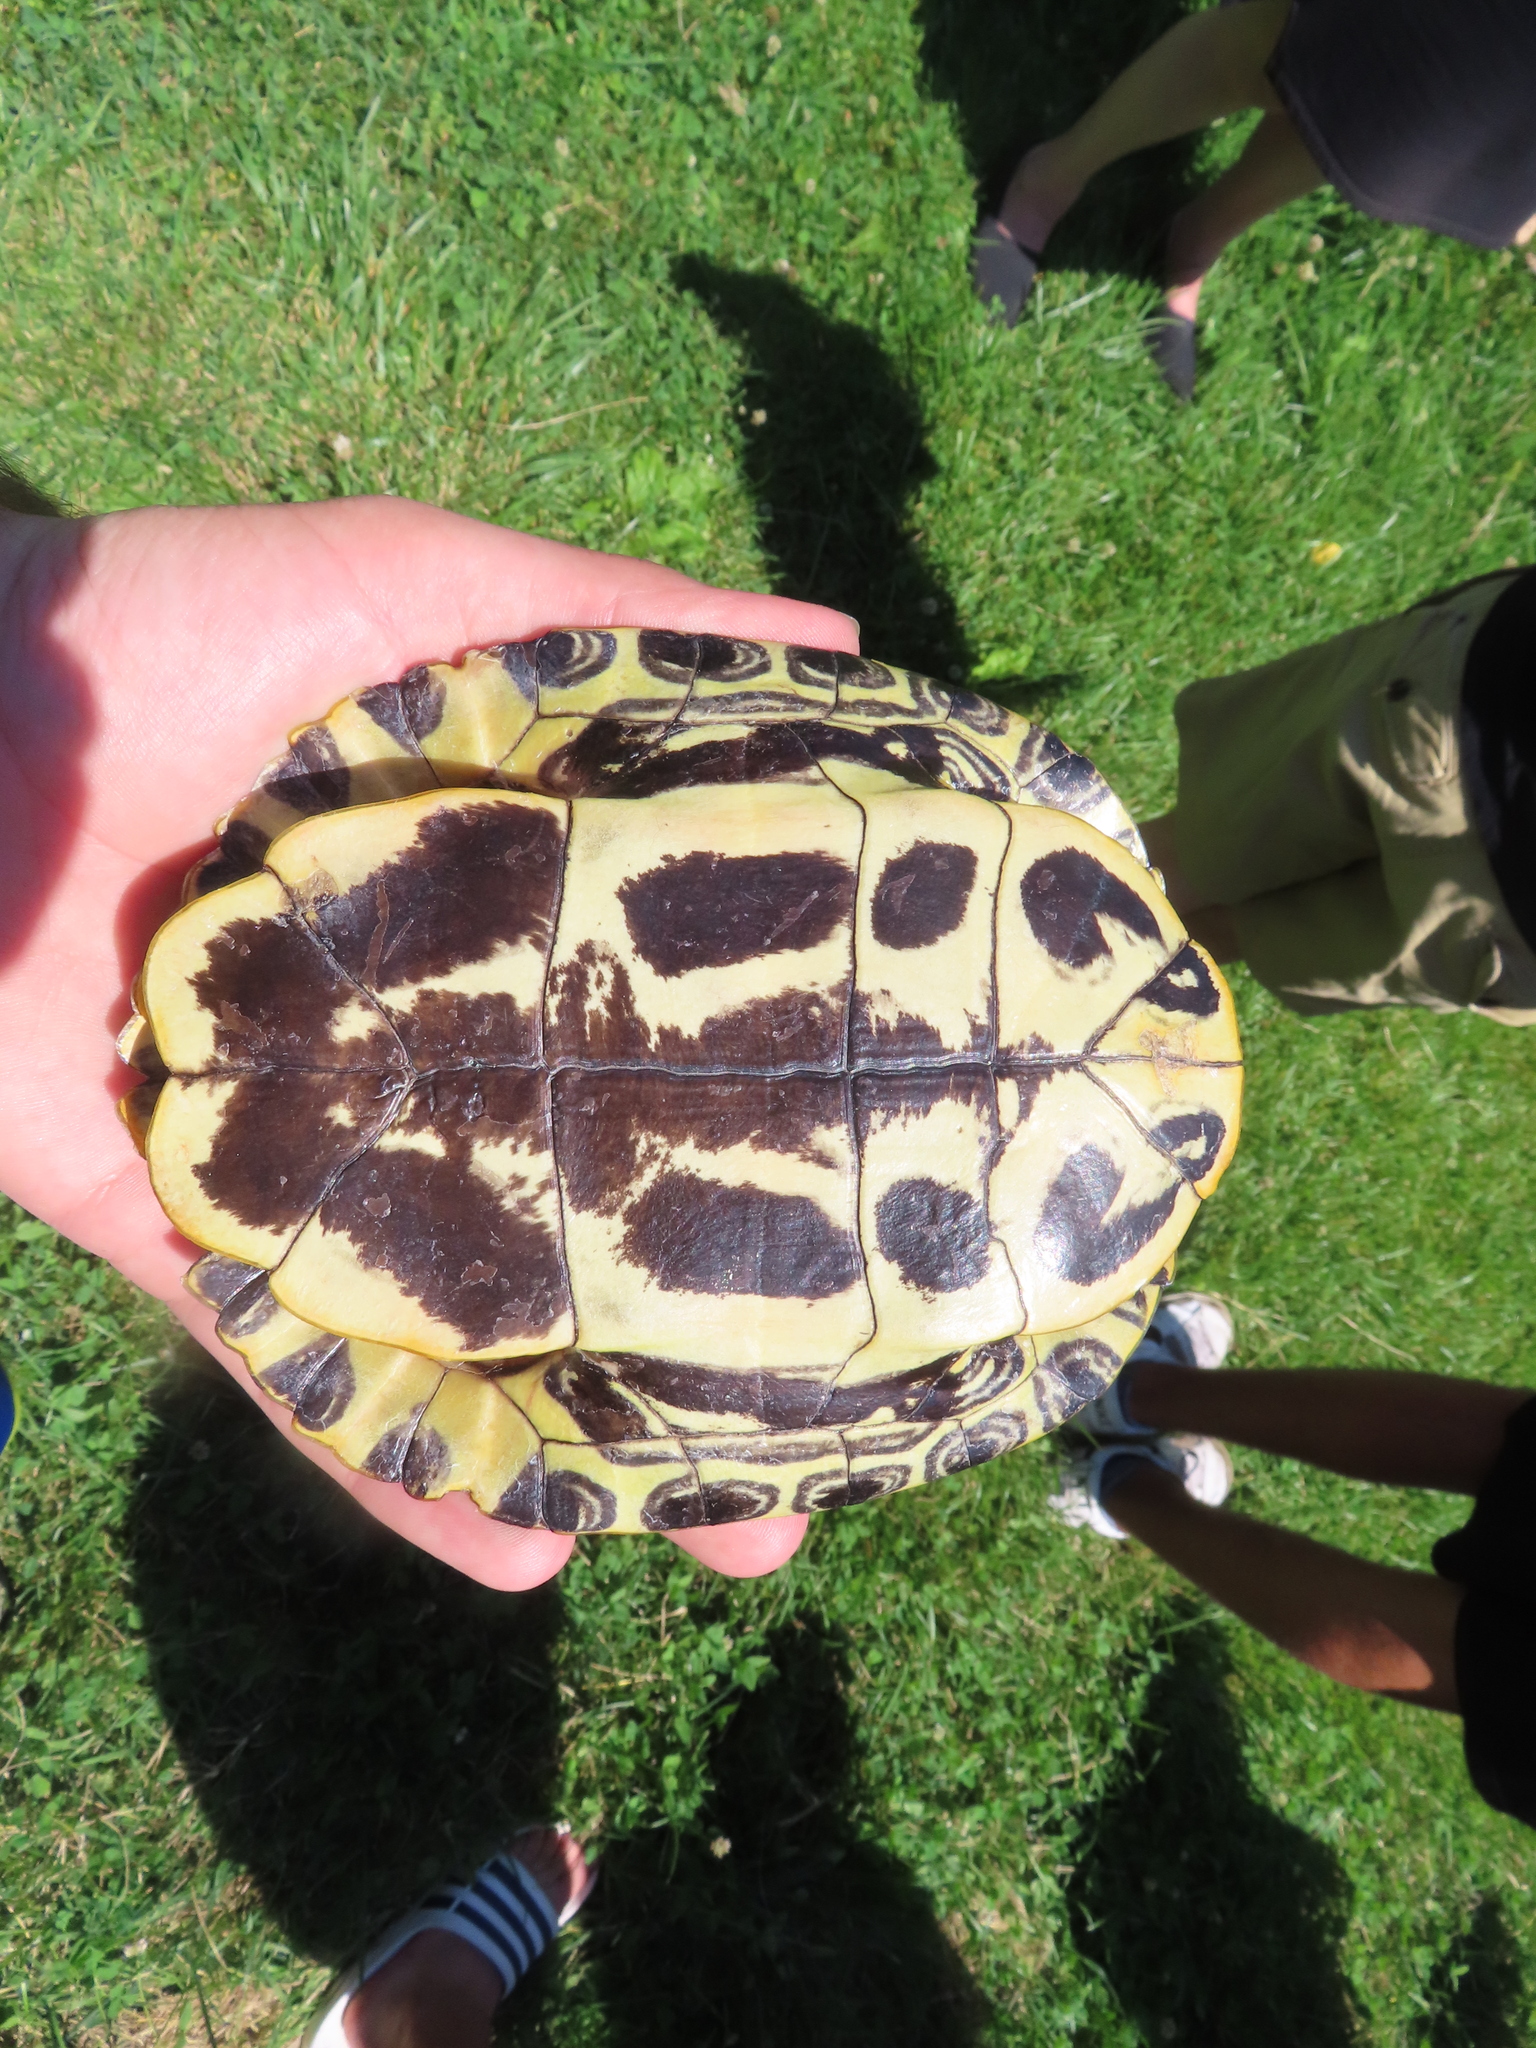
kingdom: Animalia
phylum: Chordata
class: Testudines
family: Emydidae
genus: Trachemys
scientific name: Trachemys scripta
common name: Slider
